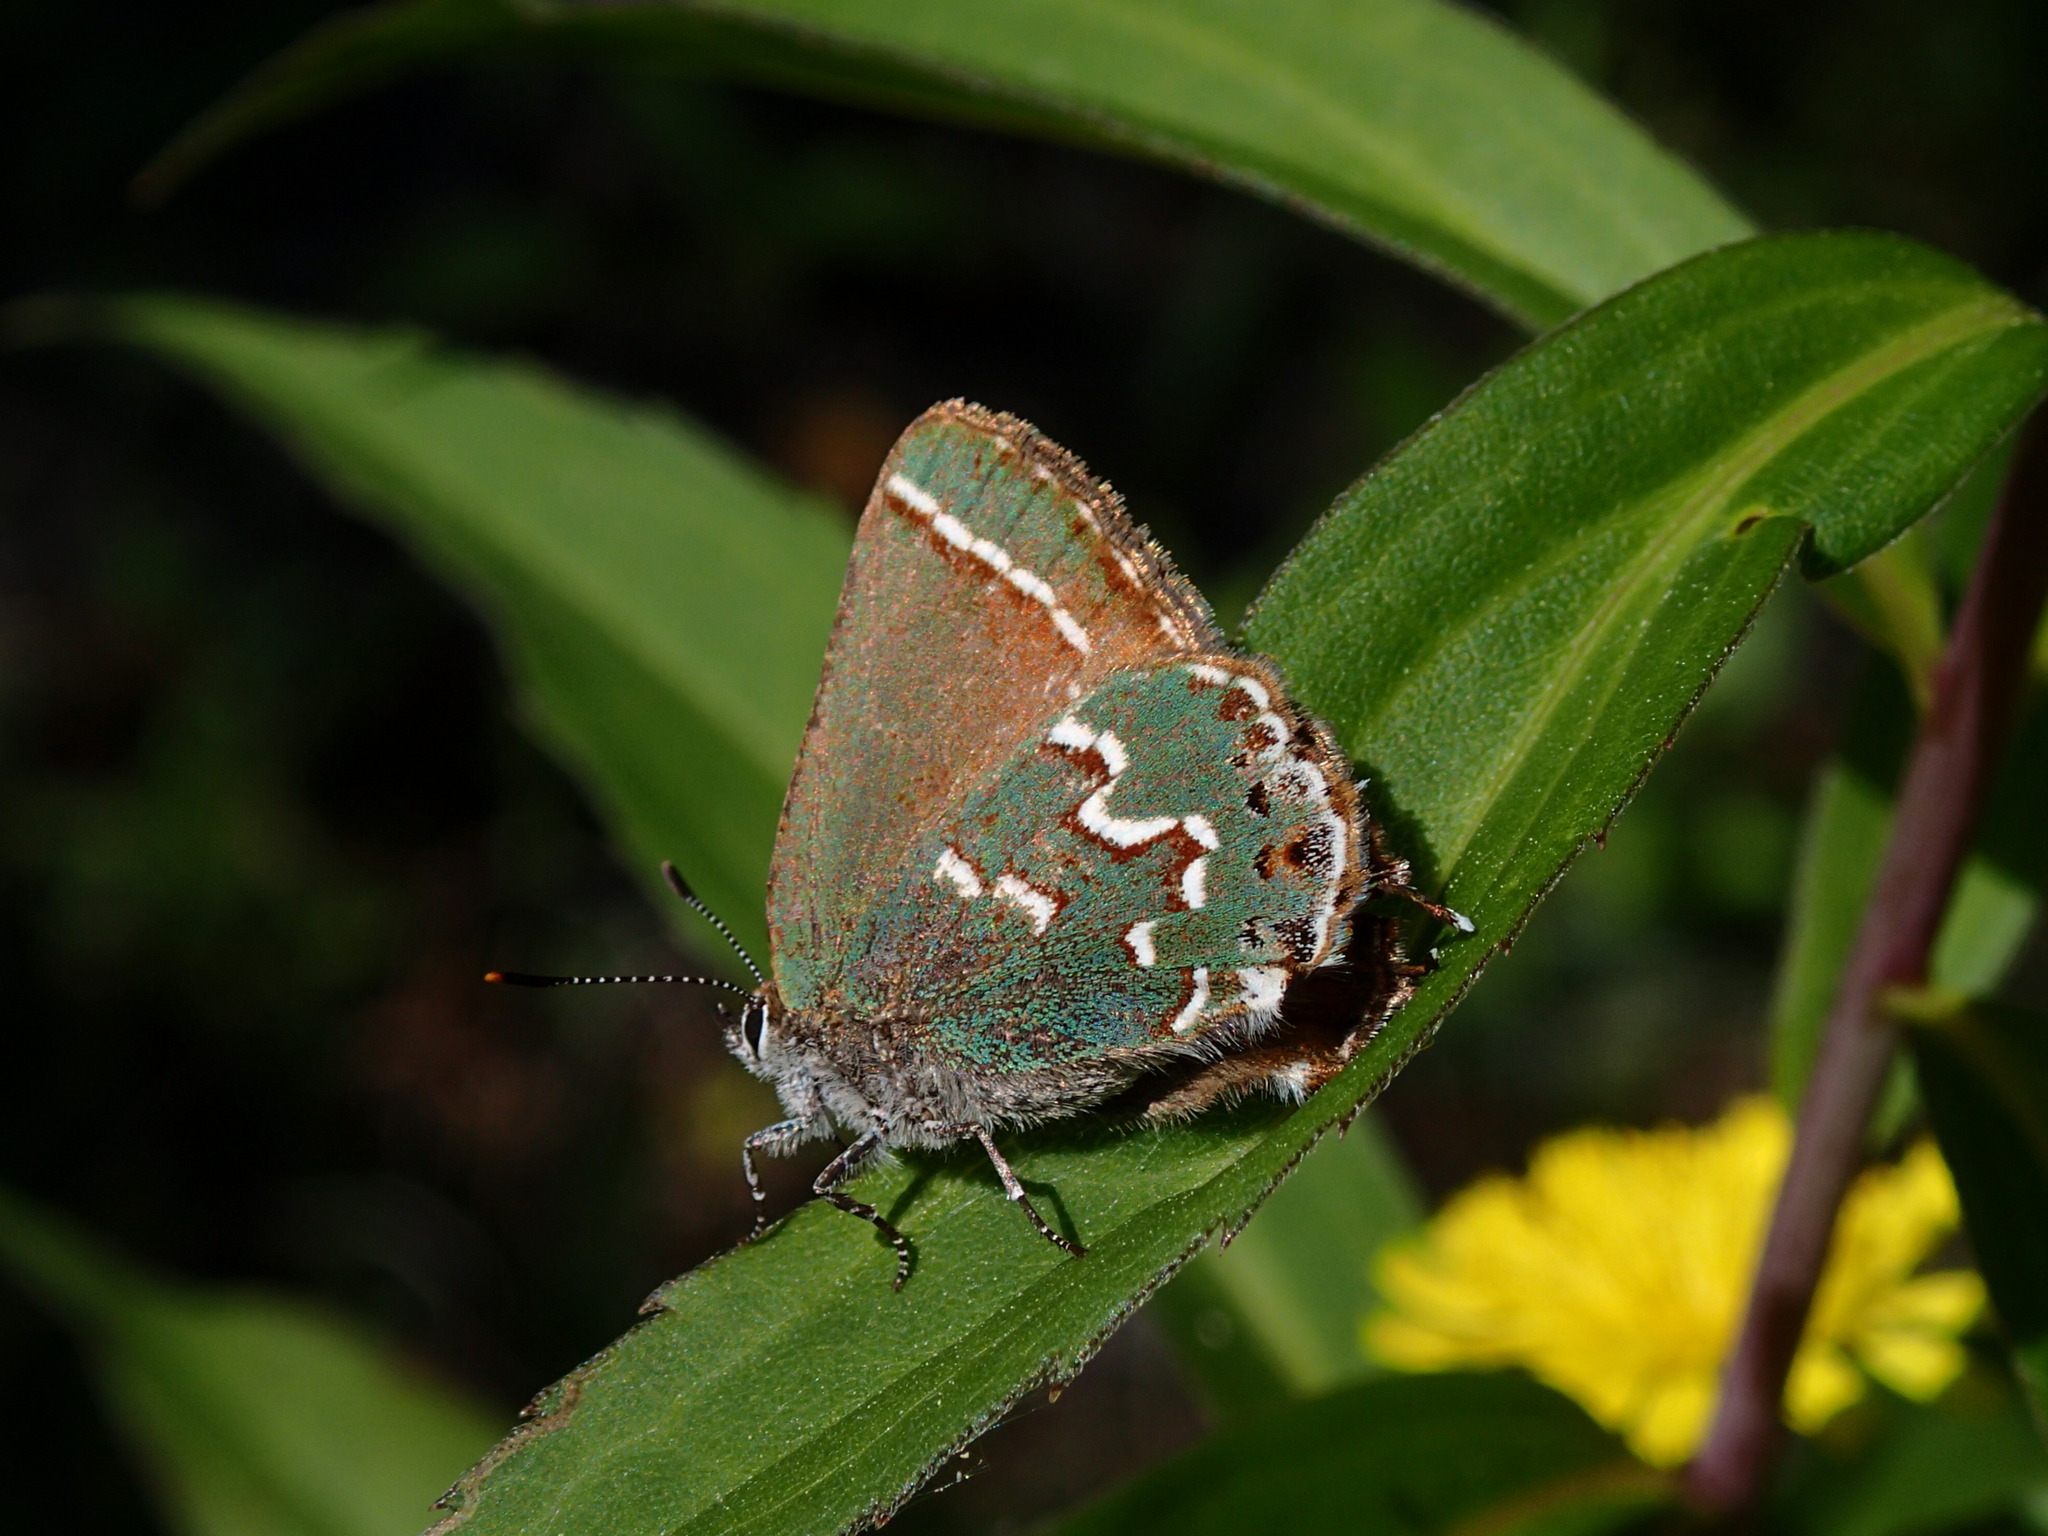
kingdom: Animalia
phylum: Arthropoda
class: Insecta
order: Lepidoptera
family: Lycaenidae
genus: Mitoura
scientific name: Mitoura gryneus
